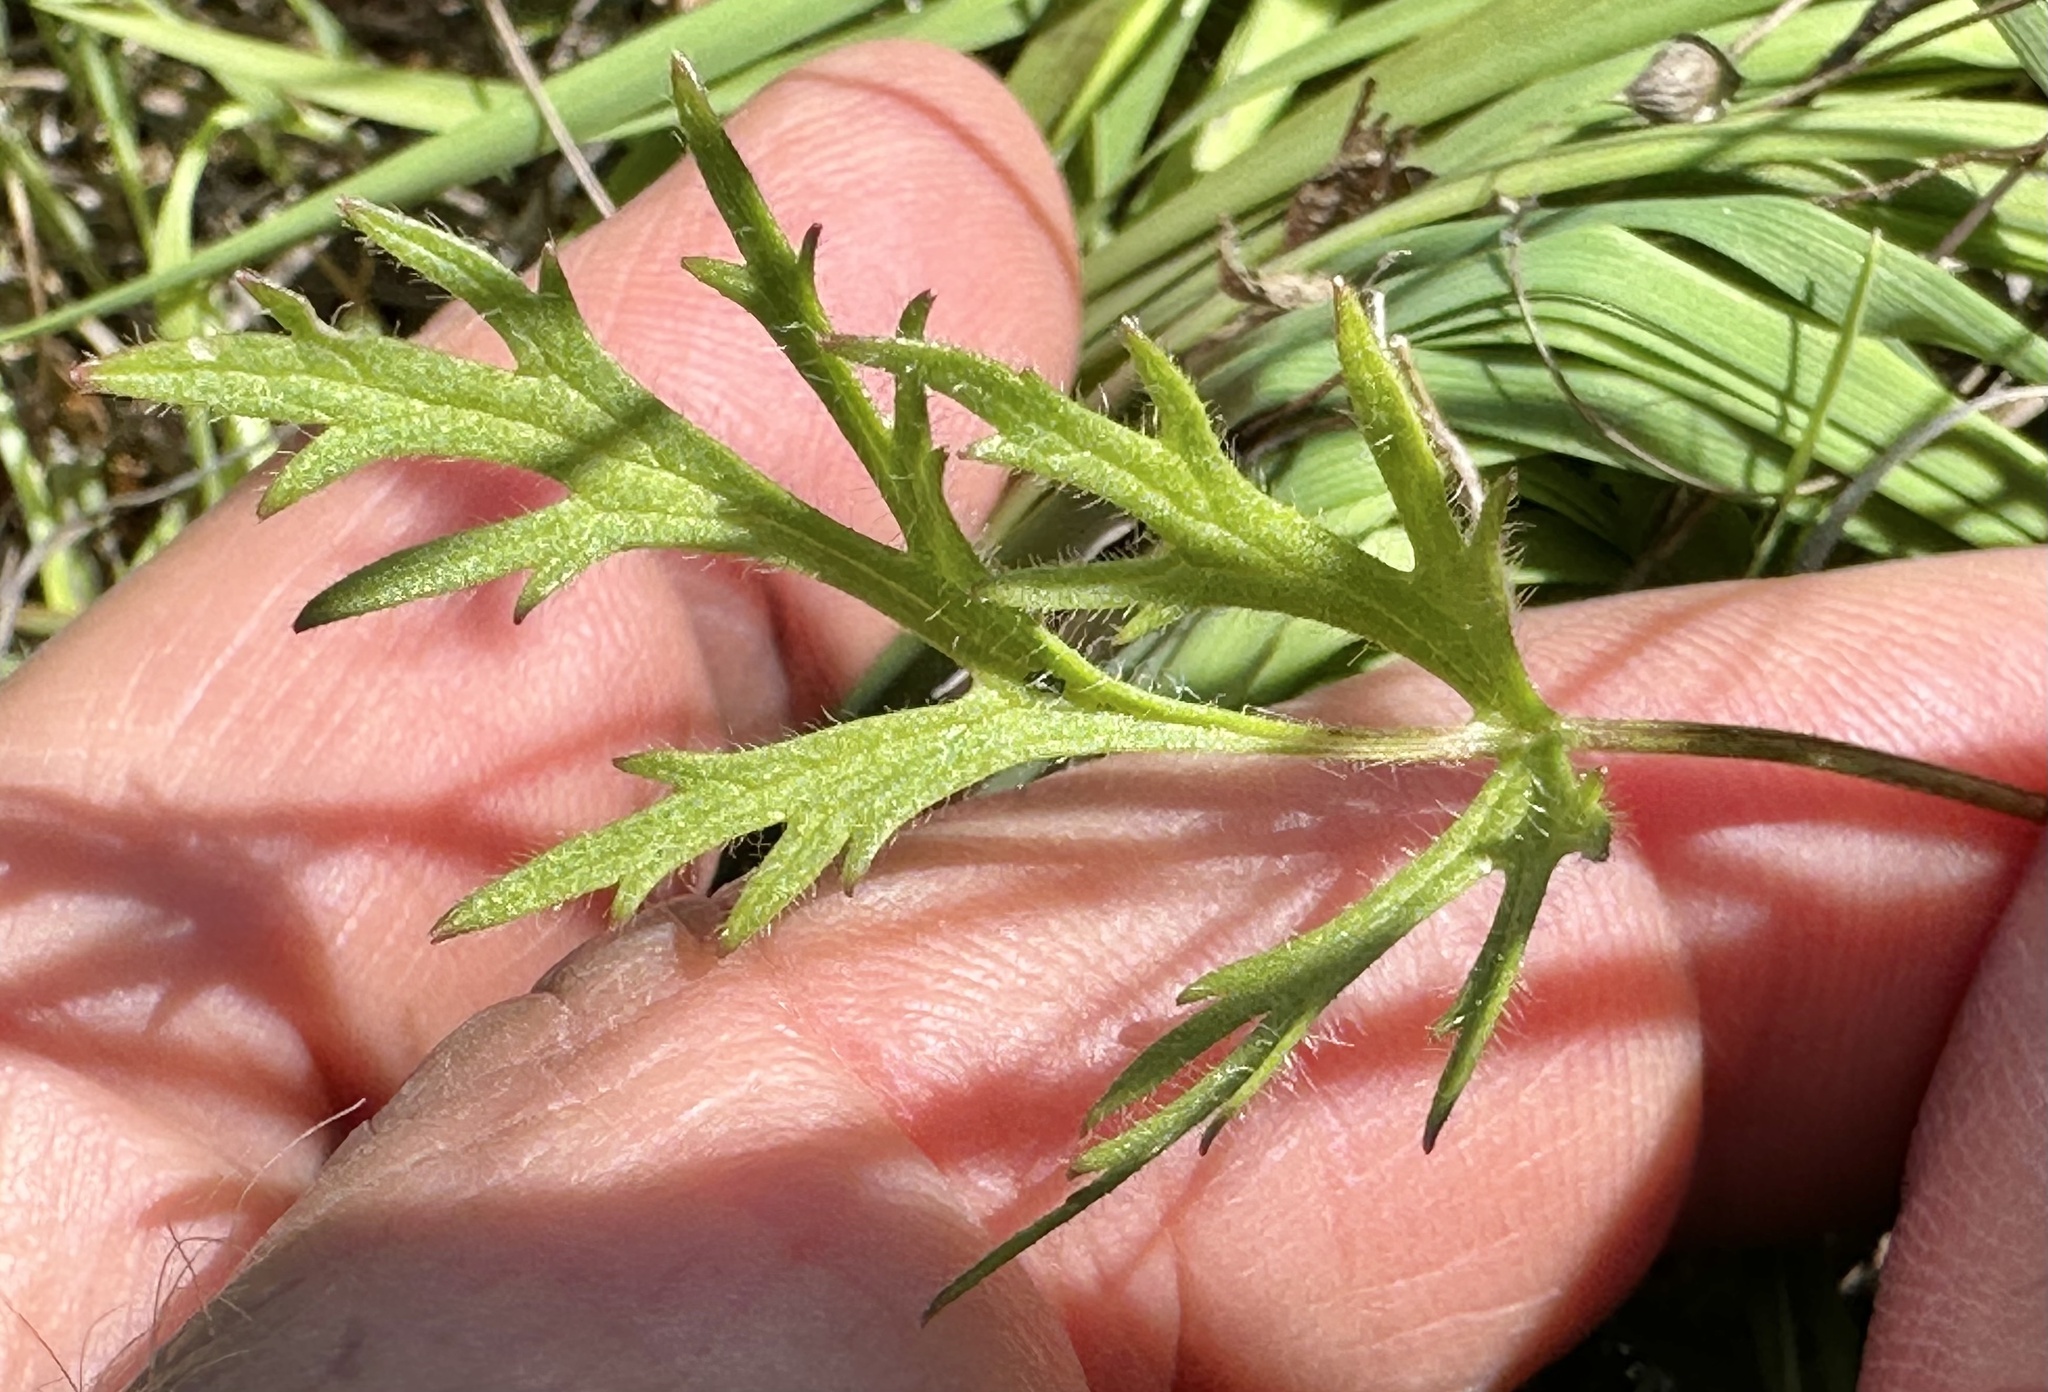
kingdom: Plantae
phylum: Tracheophyta
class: Magnoliopsida
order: Ranunculales
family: Ranunculaceae
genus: Ranunculus
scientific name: Ranunculus californicus
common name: California buttercup
